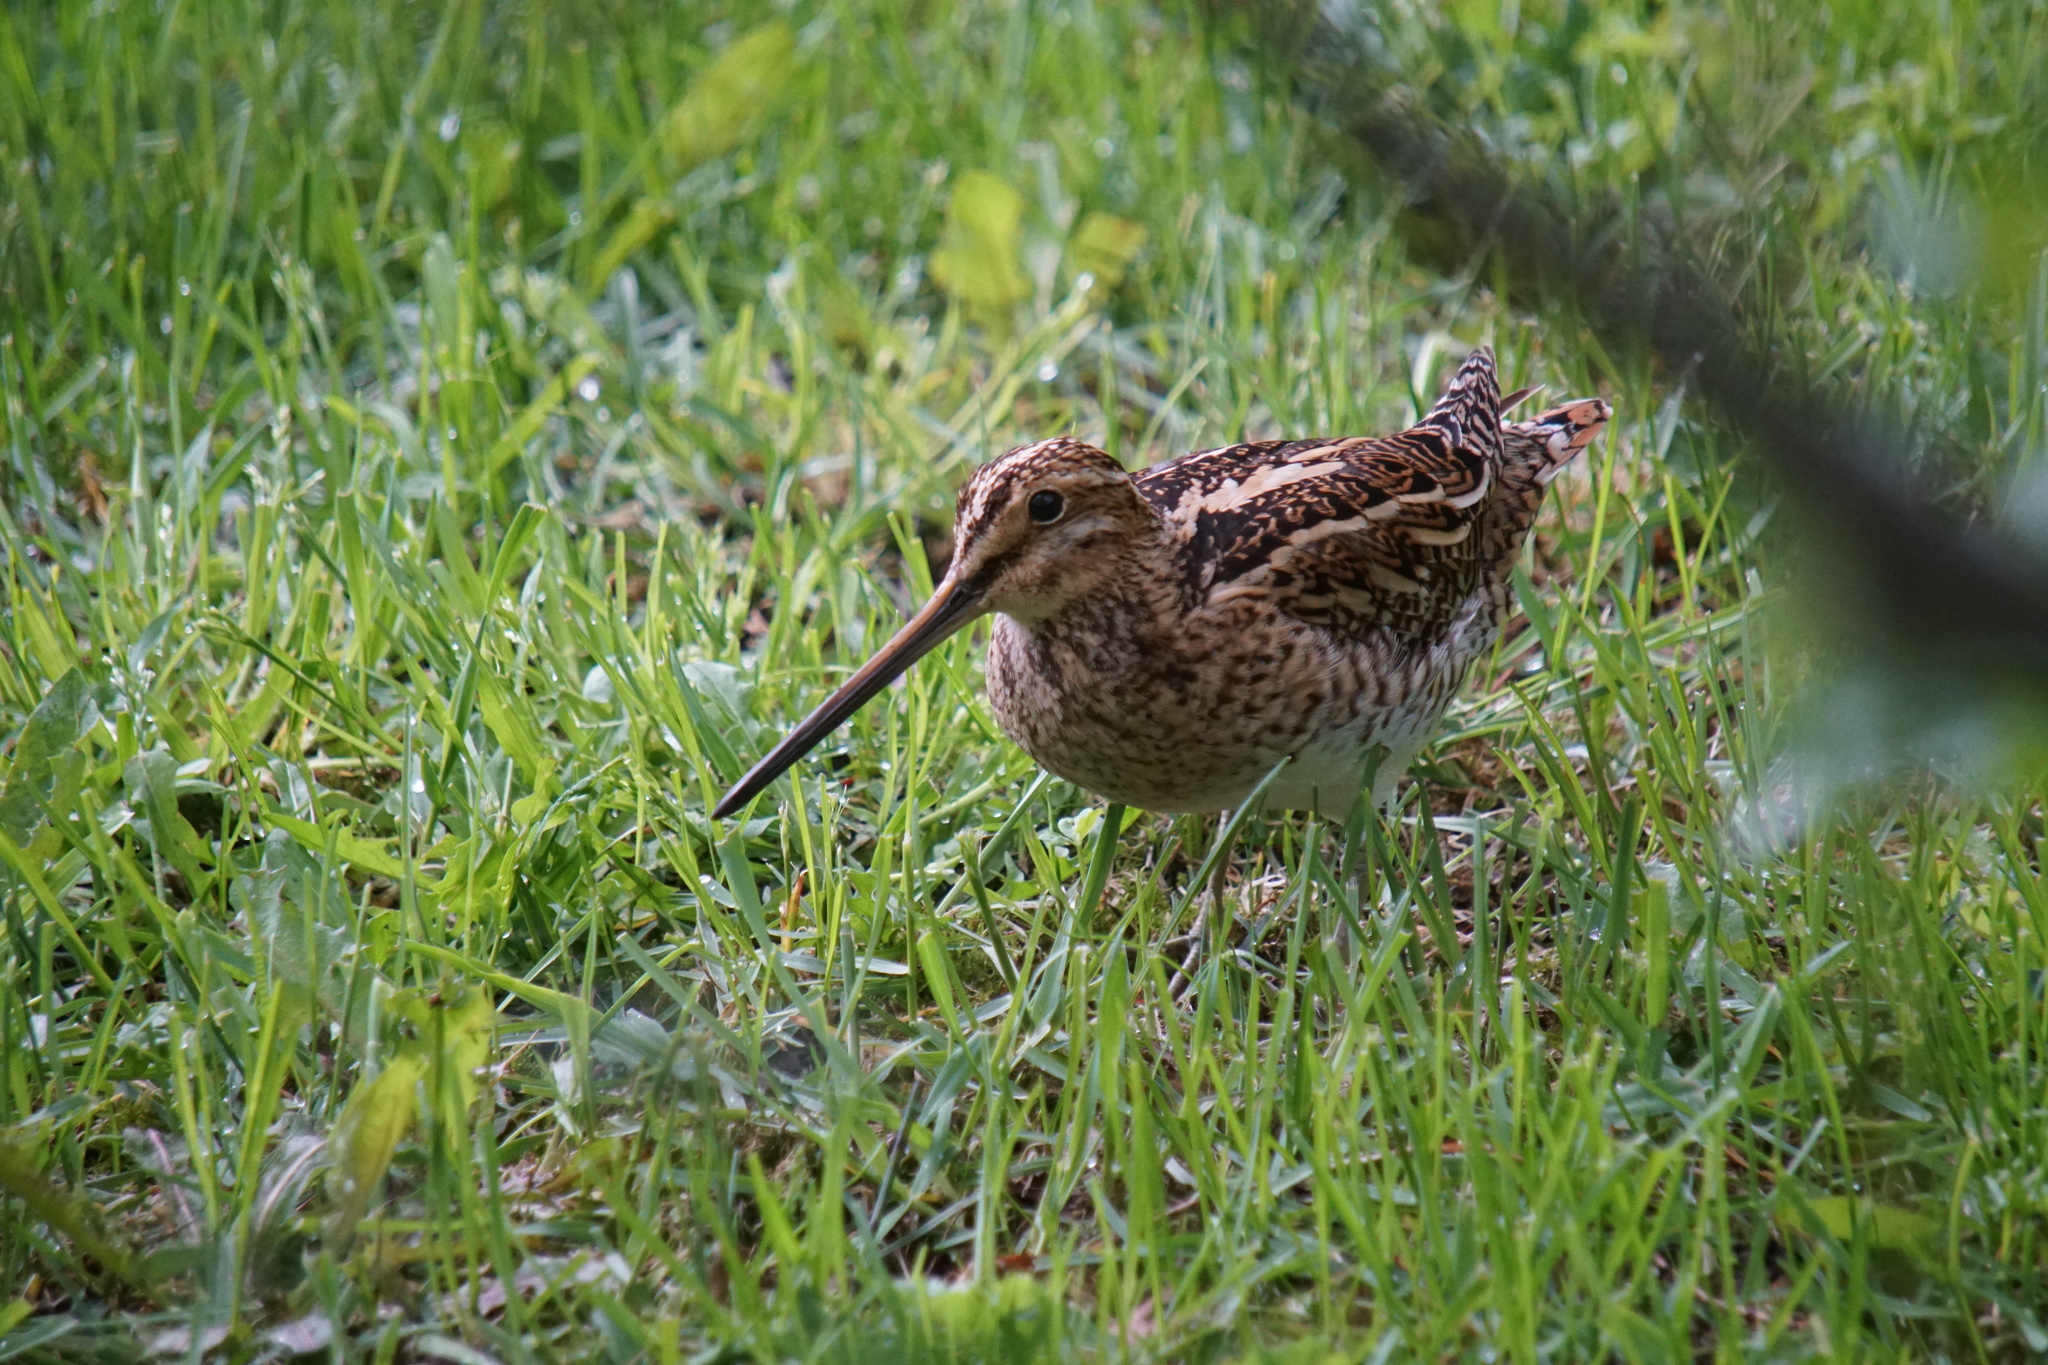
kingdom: Animalia
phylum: Chordata
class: Aves
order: Charadriiformes
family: Scolopacidae
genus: Gallinago
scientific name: Gallinago gallinago
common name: Common snipe
